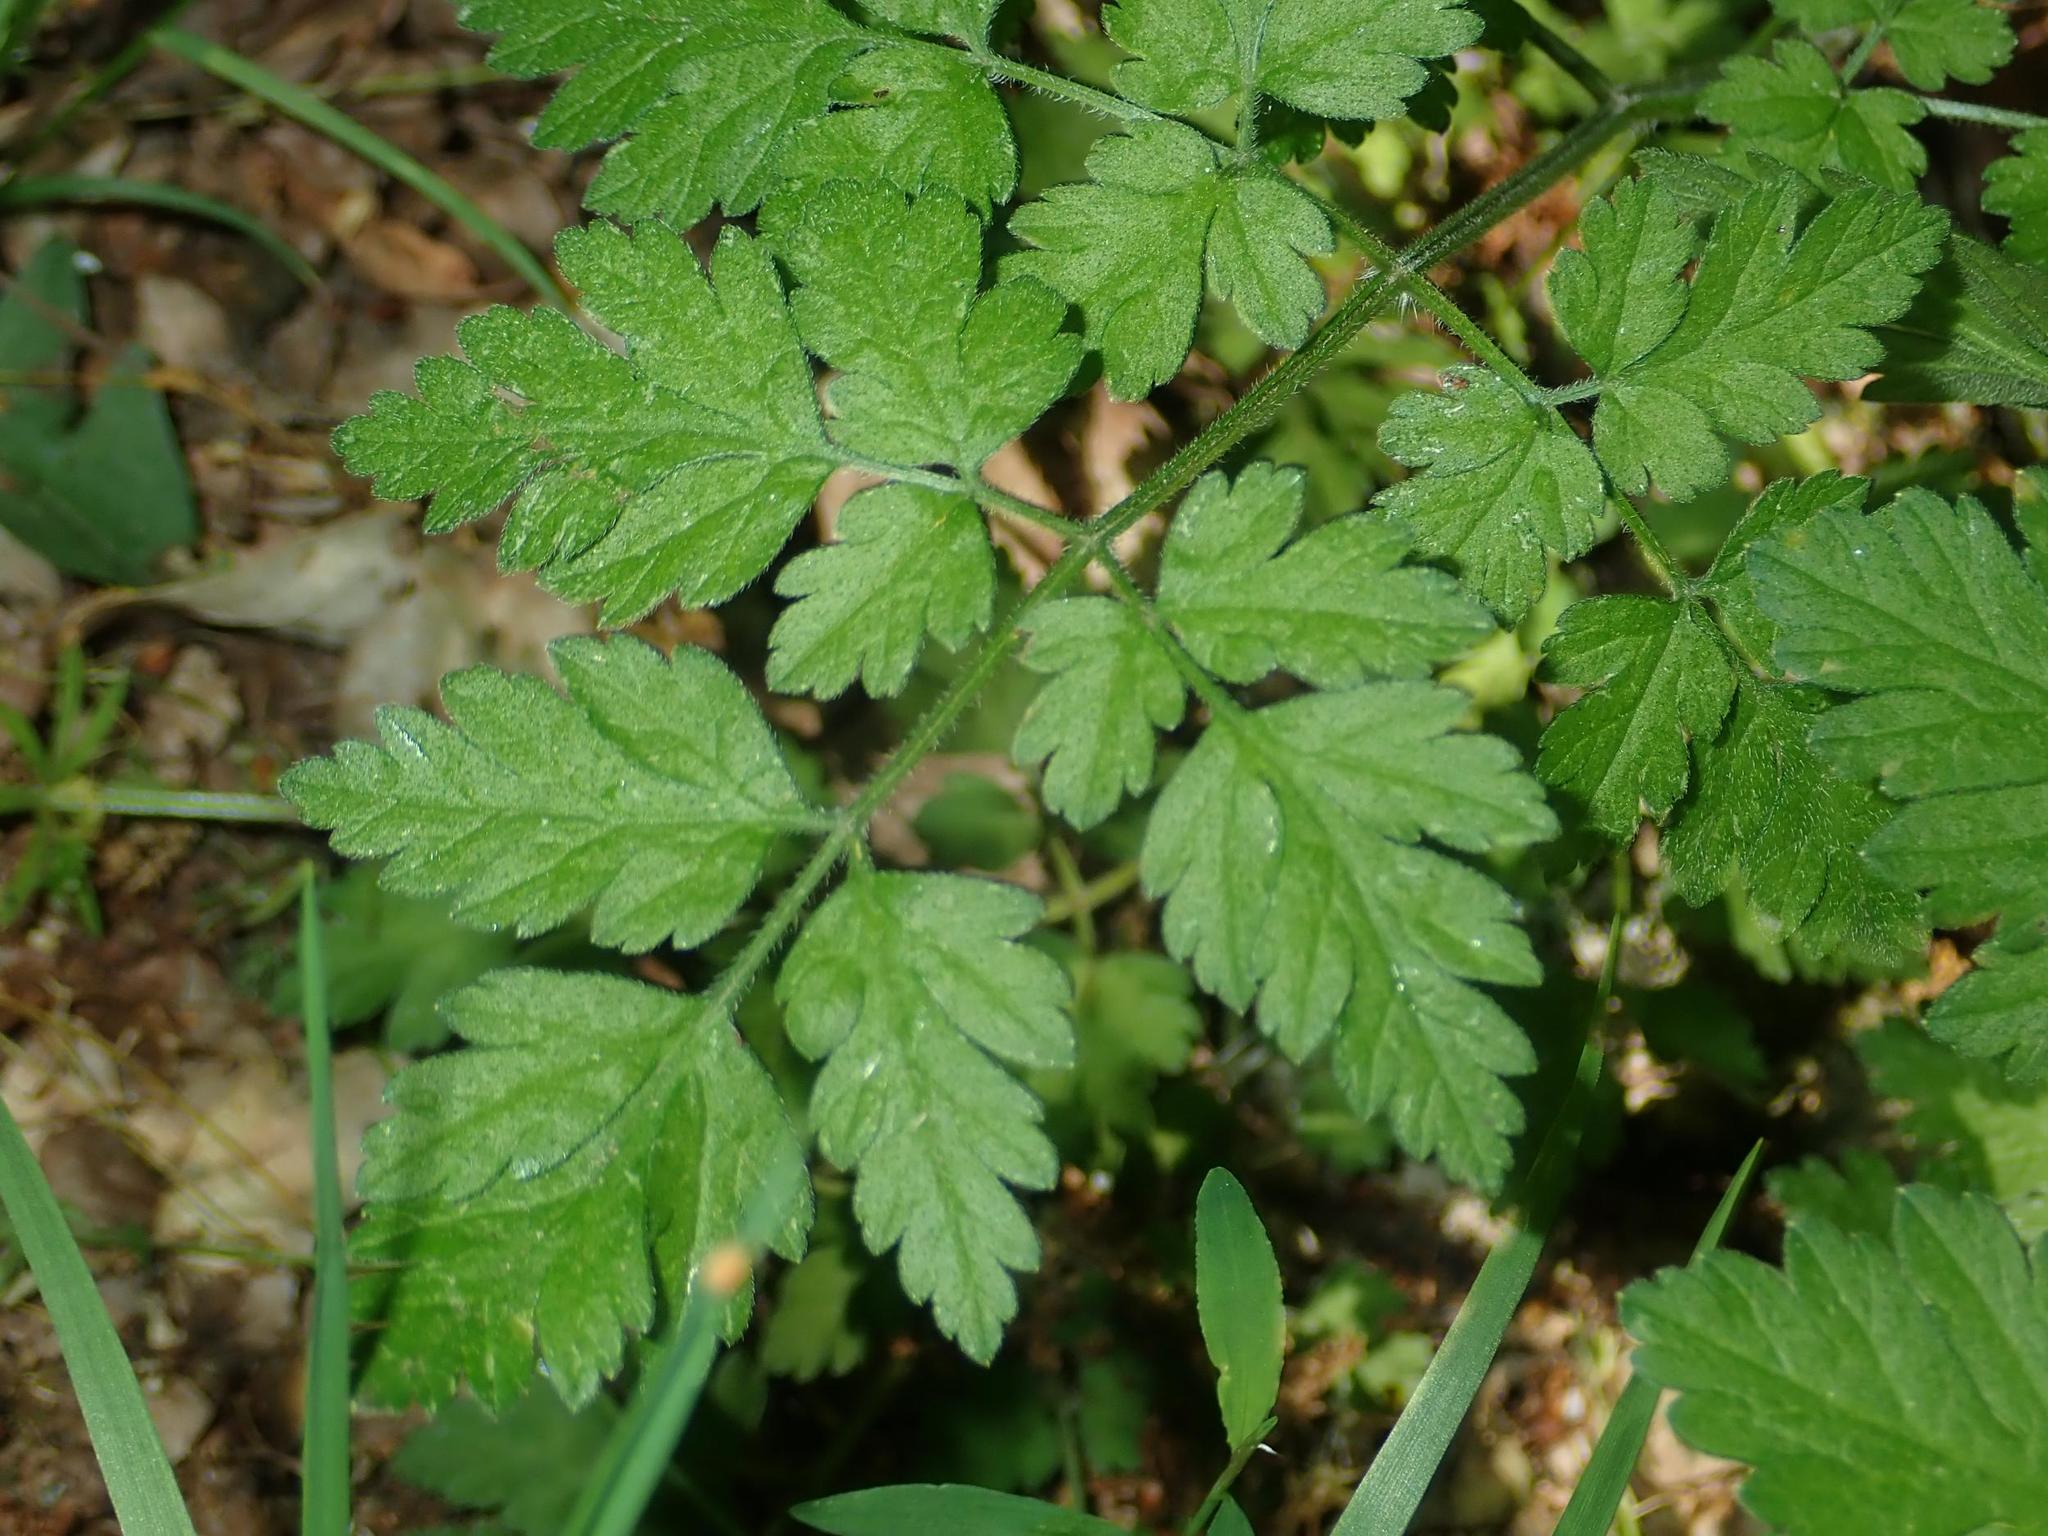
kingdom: Plantae
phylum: Tracheophyta
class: Magnoliopsida
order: Apiales
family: Apiaceae
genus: Chaerophyllum
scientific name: Chaerophyllum temulum
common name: Rough chervil
